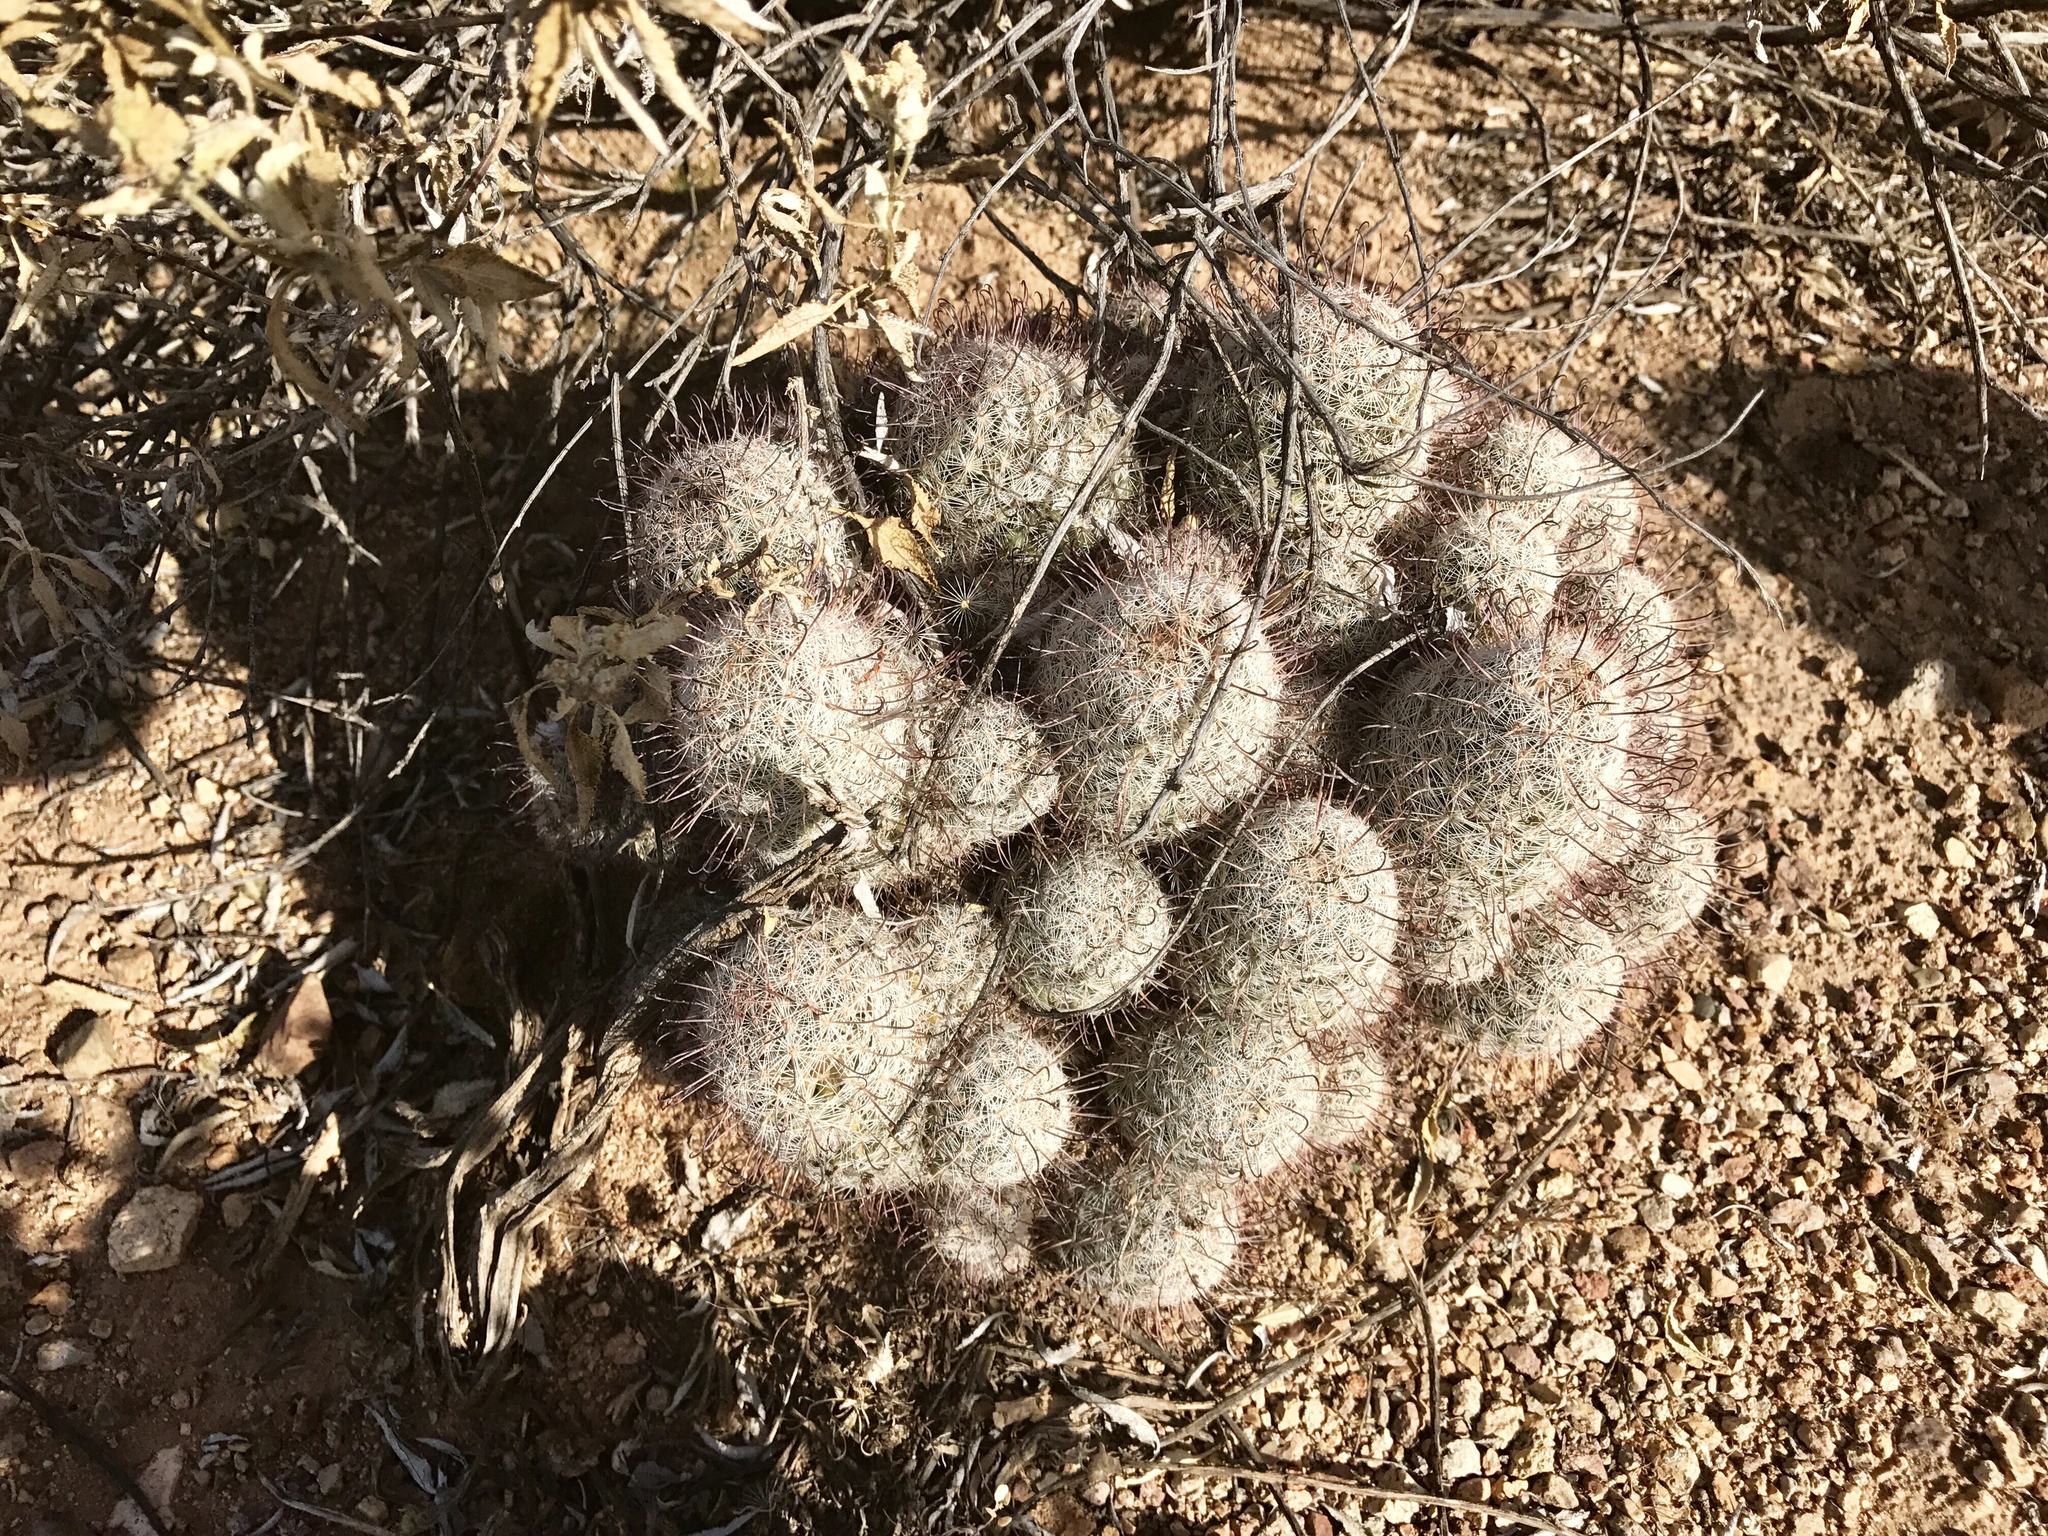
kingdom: Plantae
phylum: Tracheophyta
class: Magnoliopsida
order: Caryophyllales
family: Cactaceae
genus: Cochemiea
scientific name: Cochemiea grahamii
